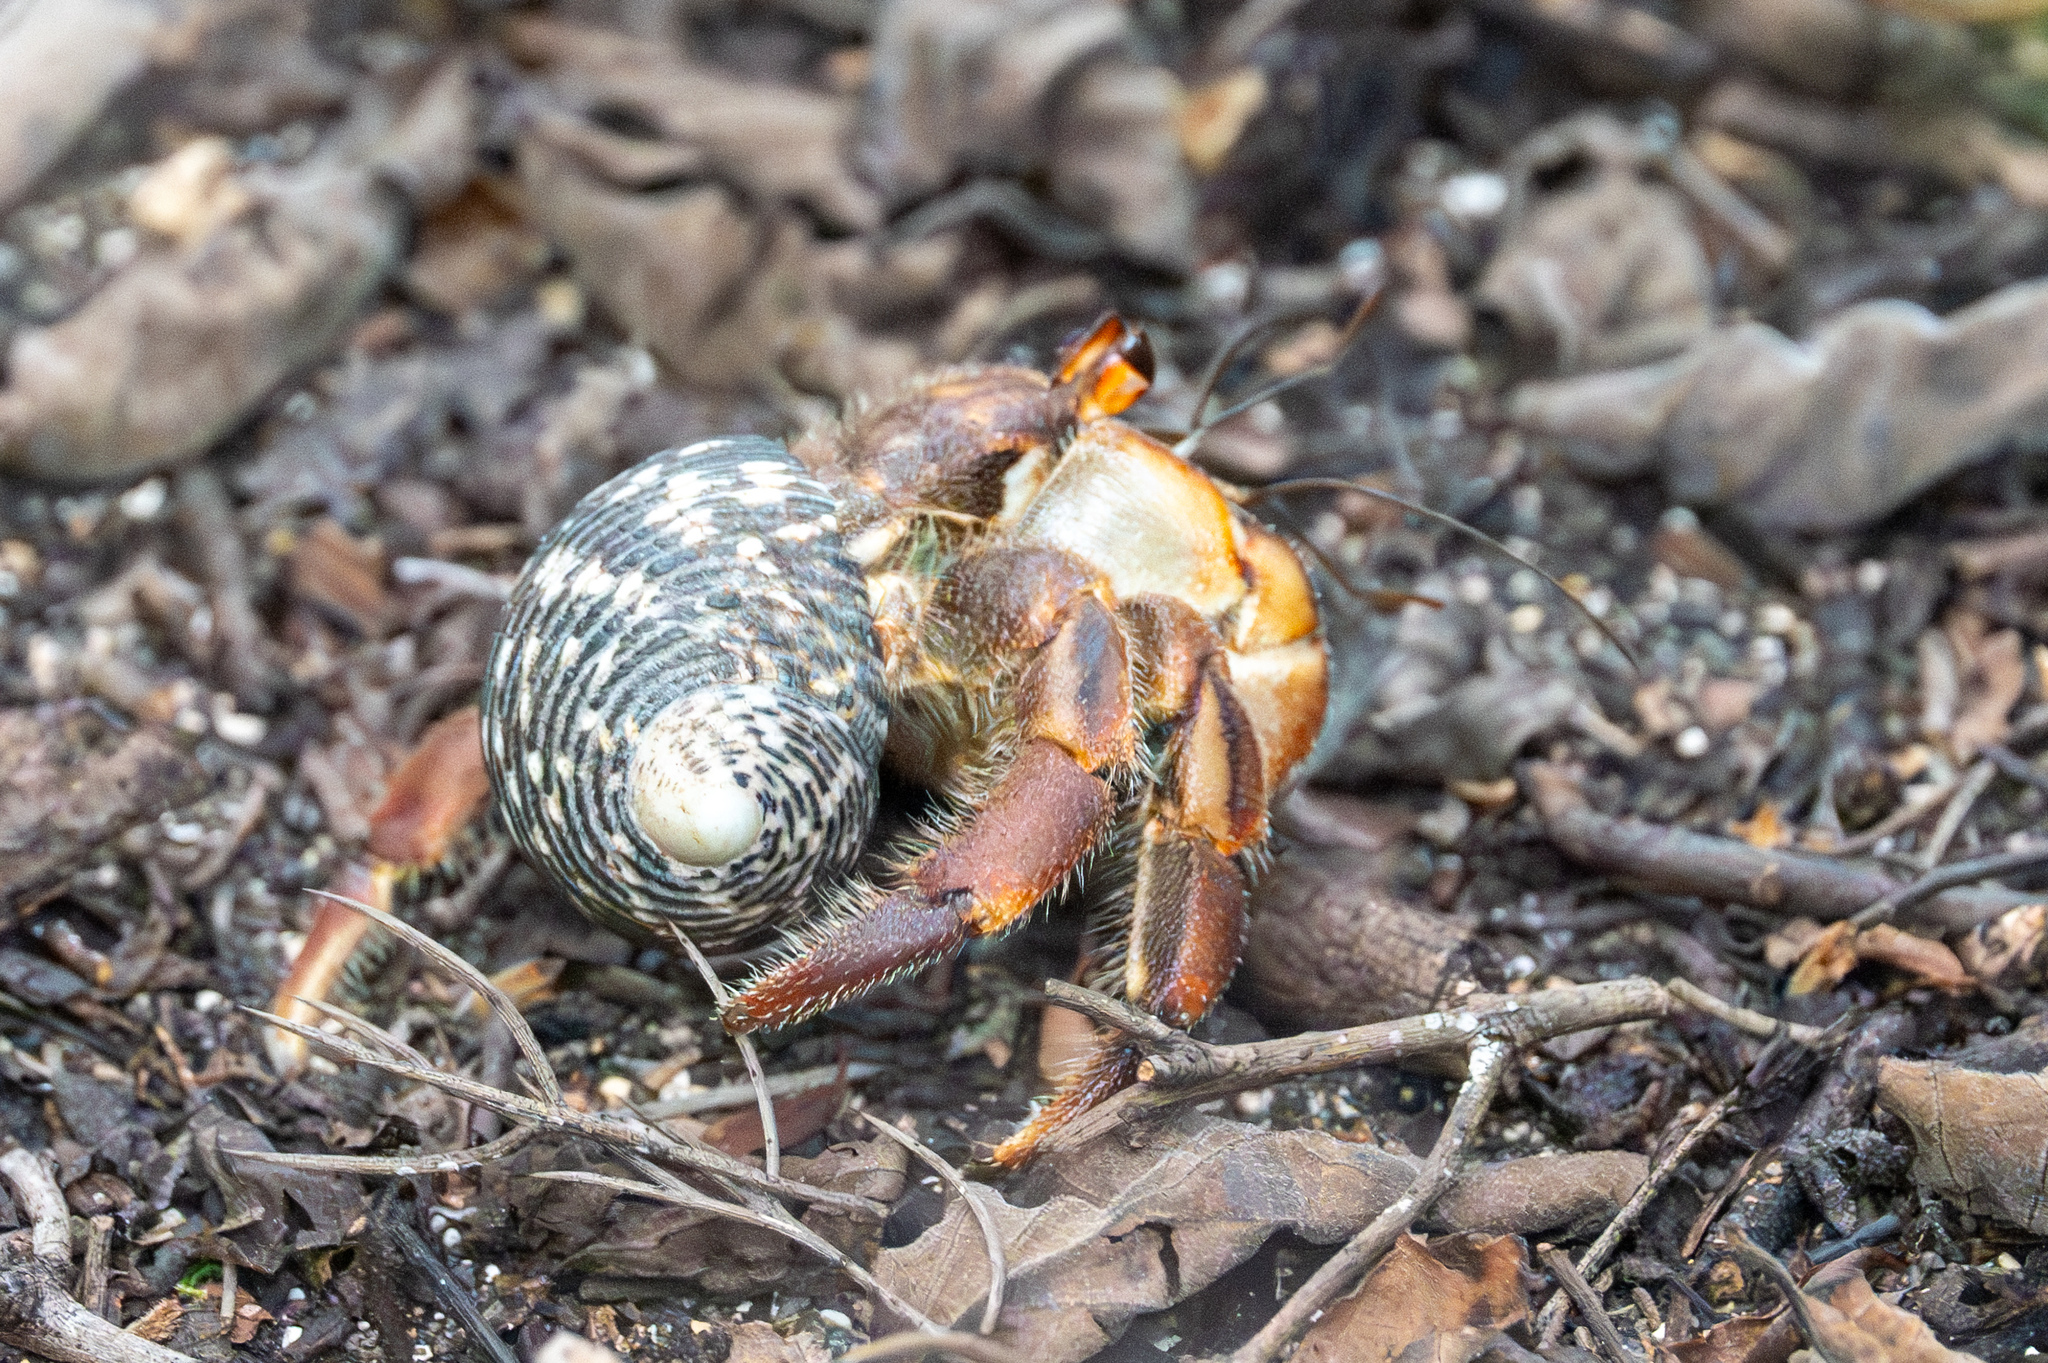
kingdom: Animalia
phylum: Arthropoda
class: Malacostraca
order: Decapoda
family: Coenobitidae
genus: Coenobita
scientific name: Coenobita compressus
